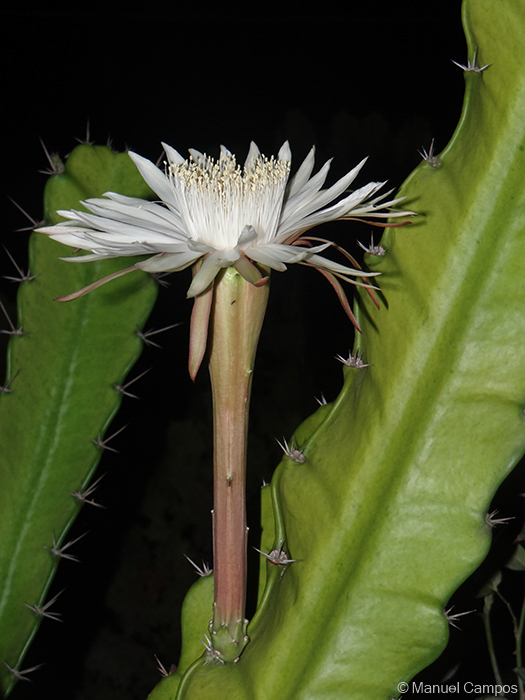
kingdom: Plantae
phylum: Tracheophyta
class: Magnoliopsida
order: Caryophyllales
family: Cactaceae
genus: Acanthocereus
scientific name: Acanthocereus tetragonus
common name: Triangle cactus
